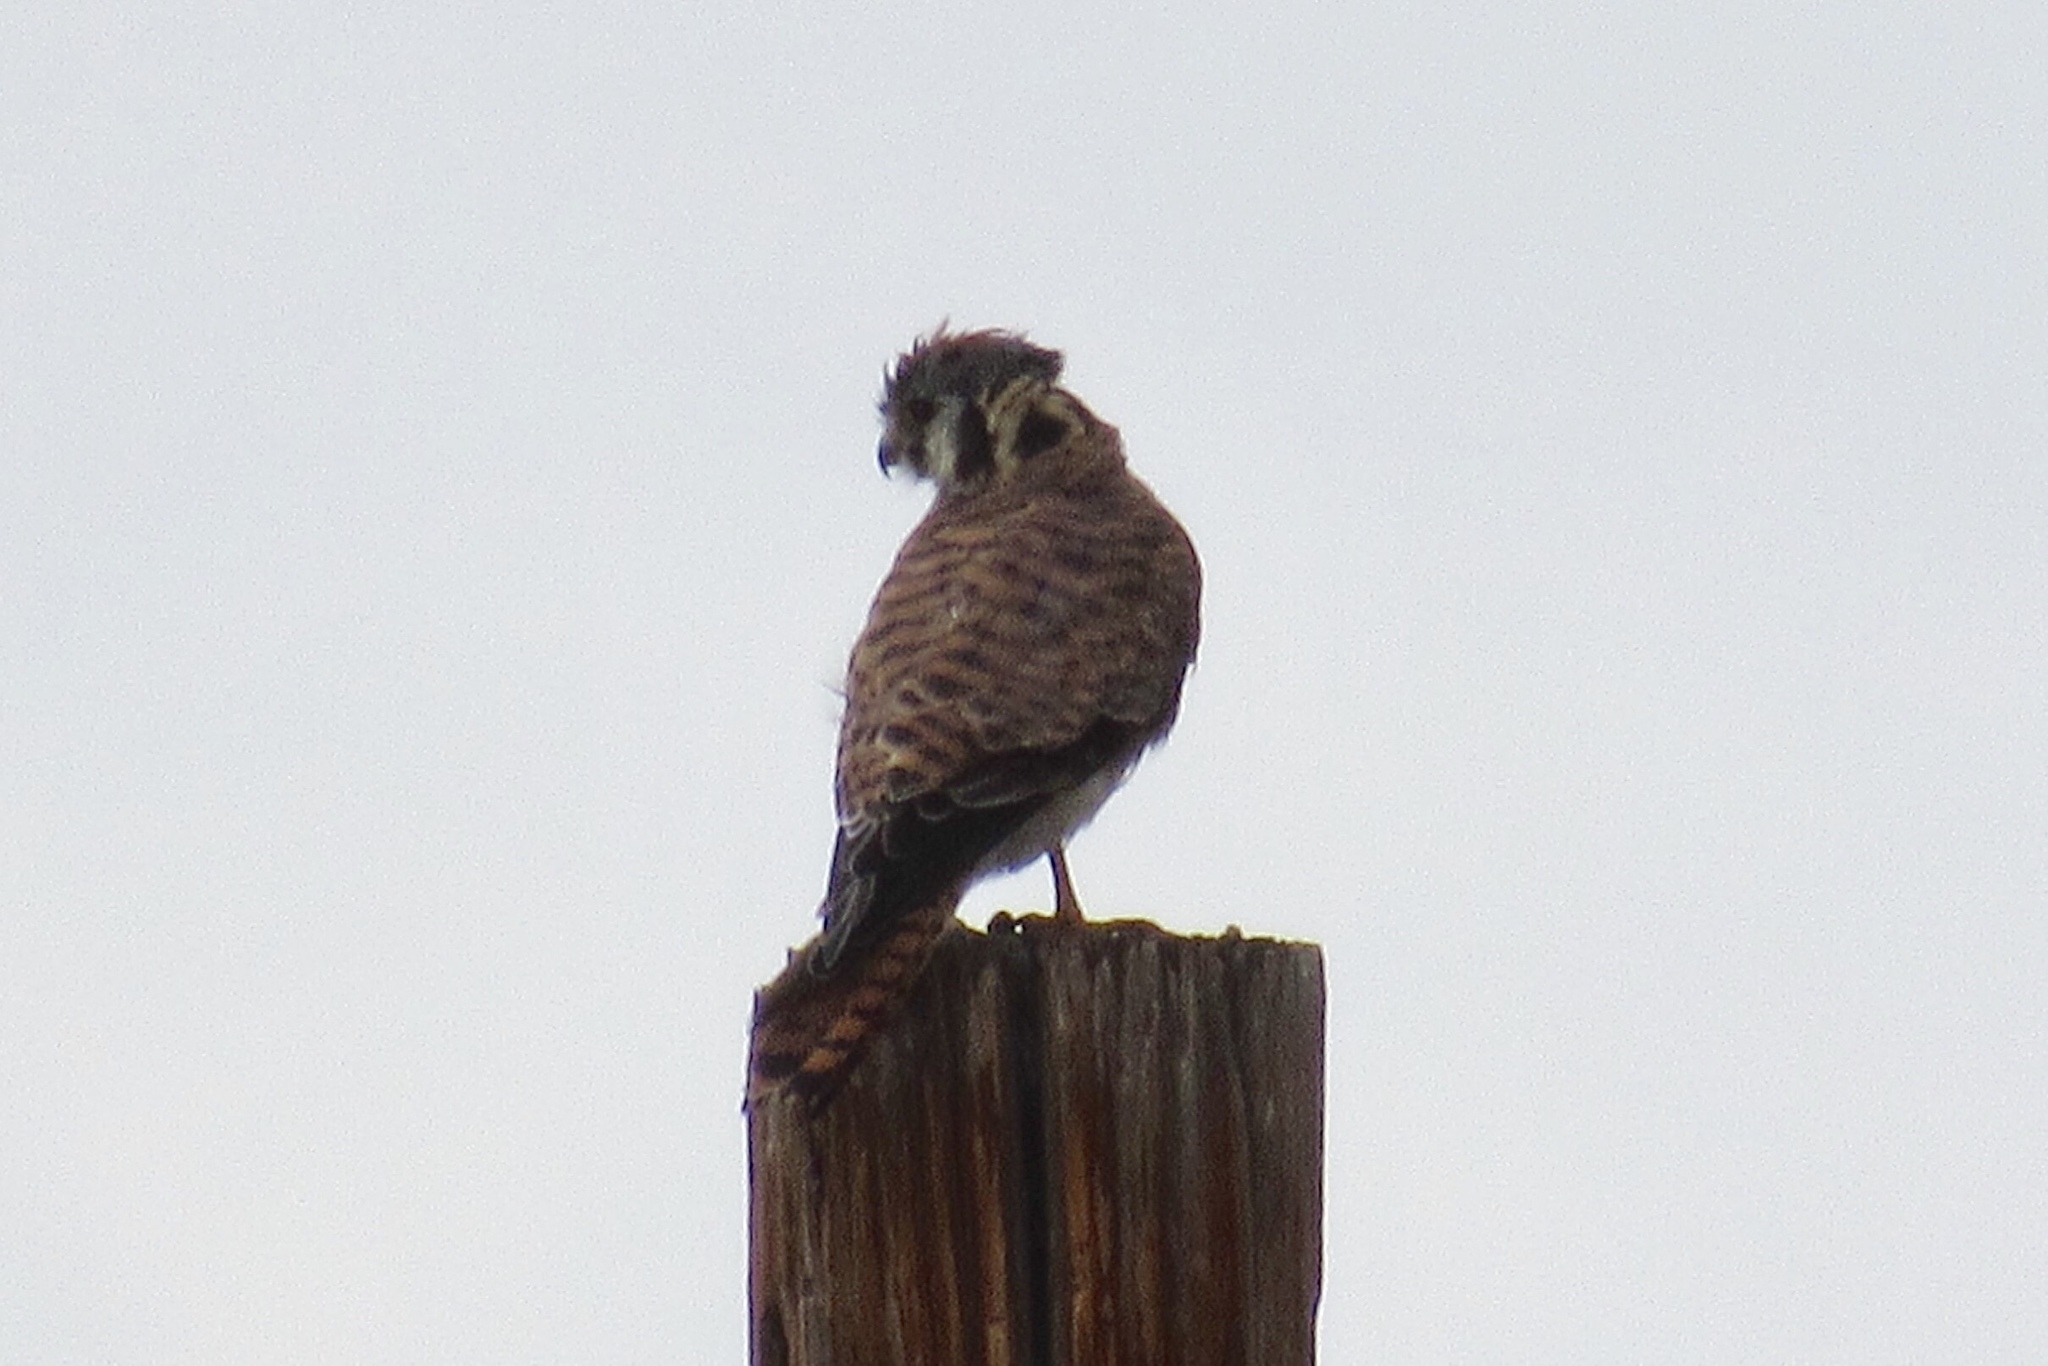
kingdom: Animalia
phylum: Chordata
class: Aves
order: Falconiformes
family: Falconidae
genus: Falco
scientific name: Falco sparverius
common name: American kestrel
